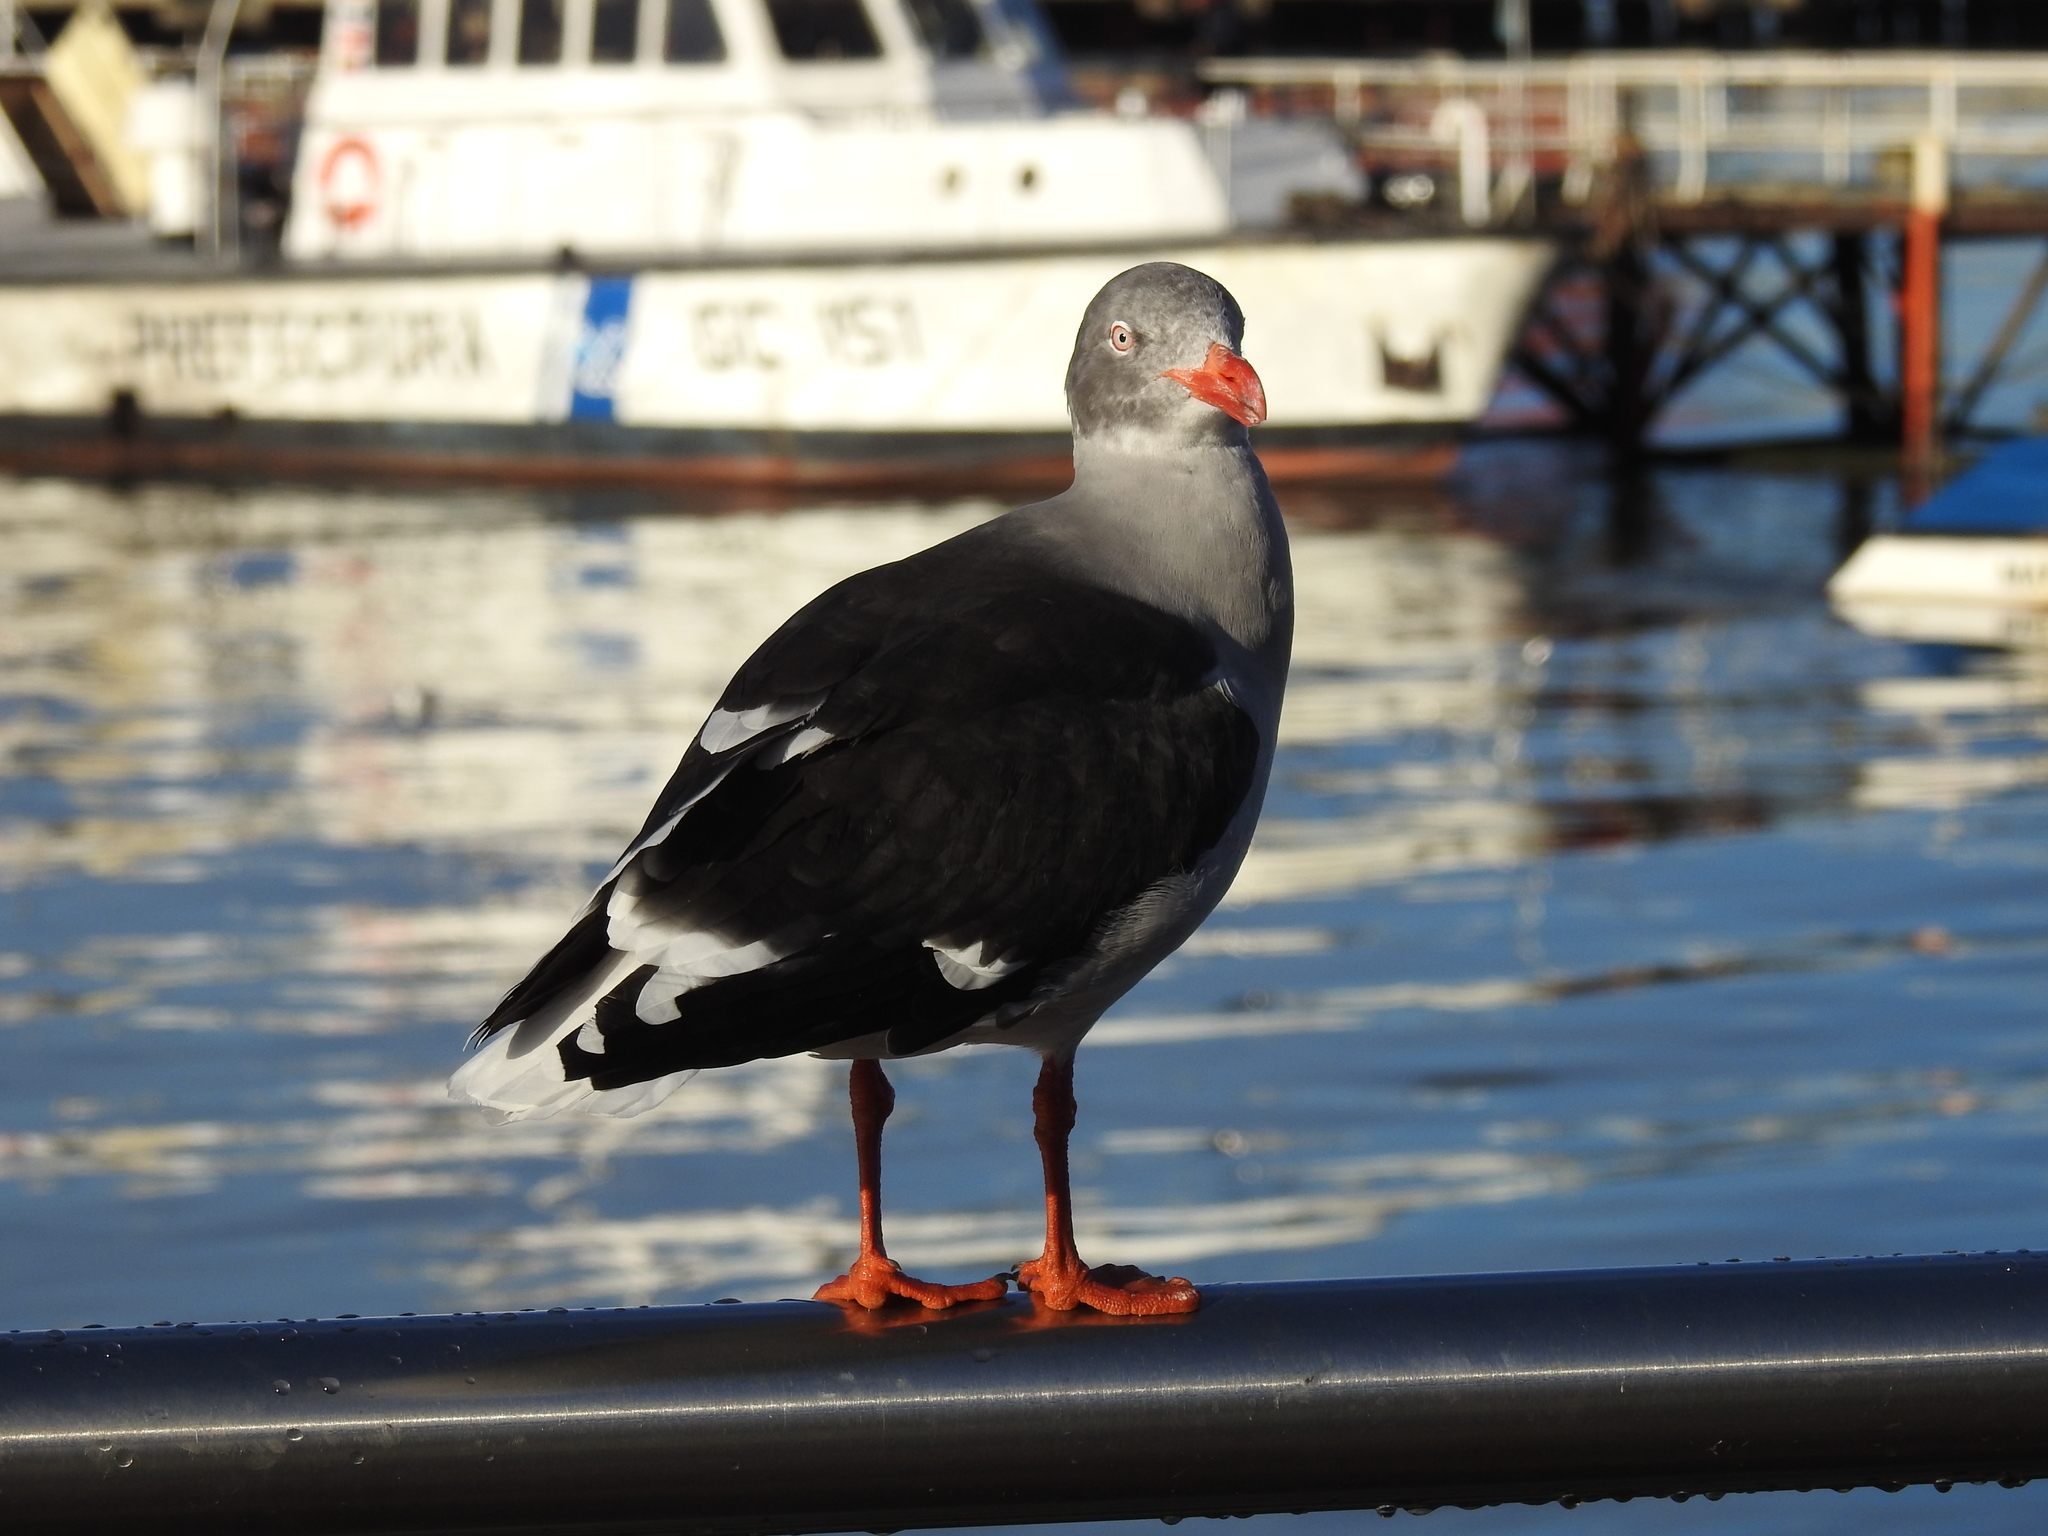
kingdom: Animalia
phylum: Chordata
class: Aves
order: Charadriiformes
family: Laridae
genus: Leucophaeus
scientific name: Leucophaeus scoresbii
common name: Dolphin gull
